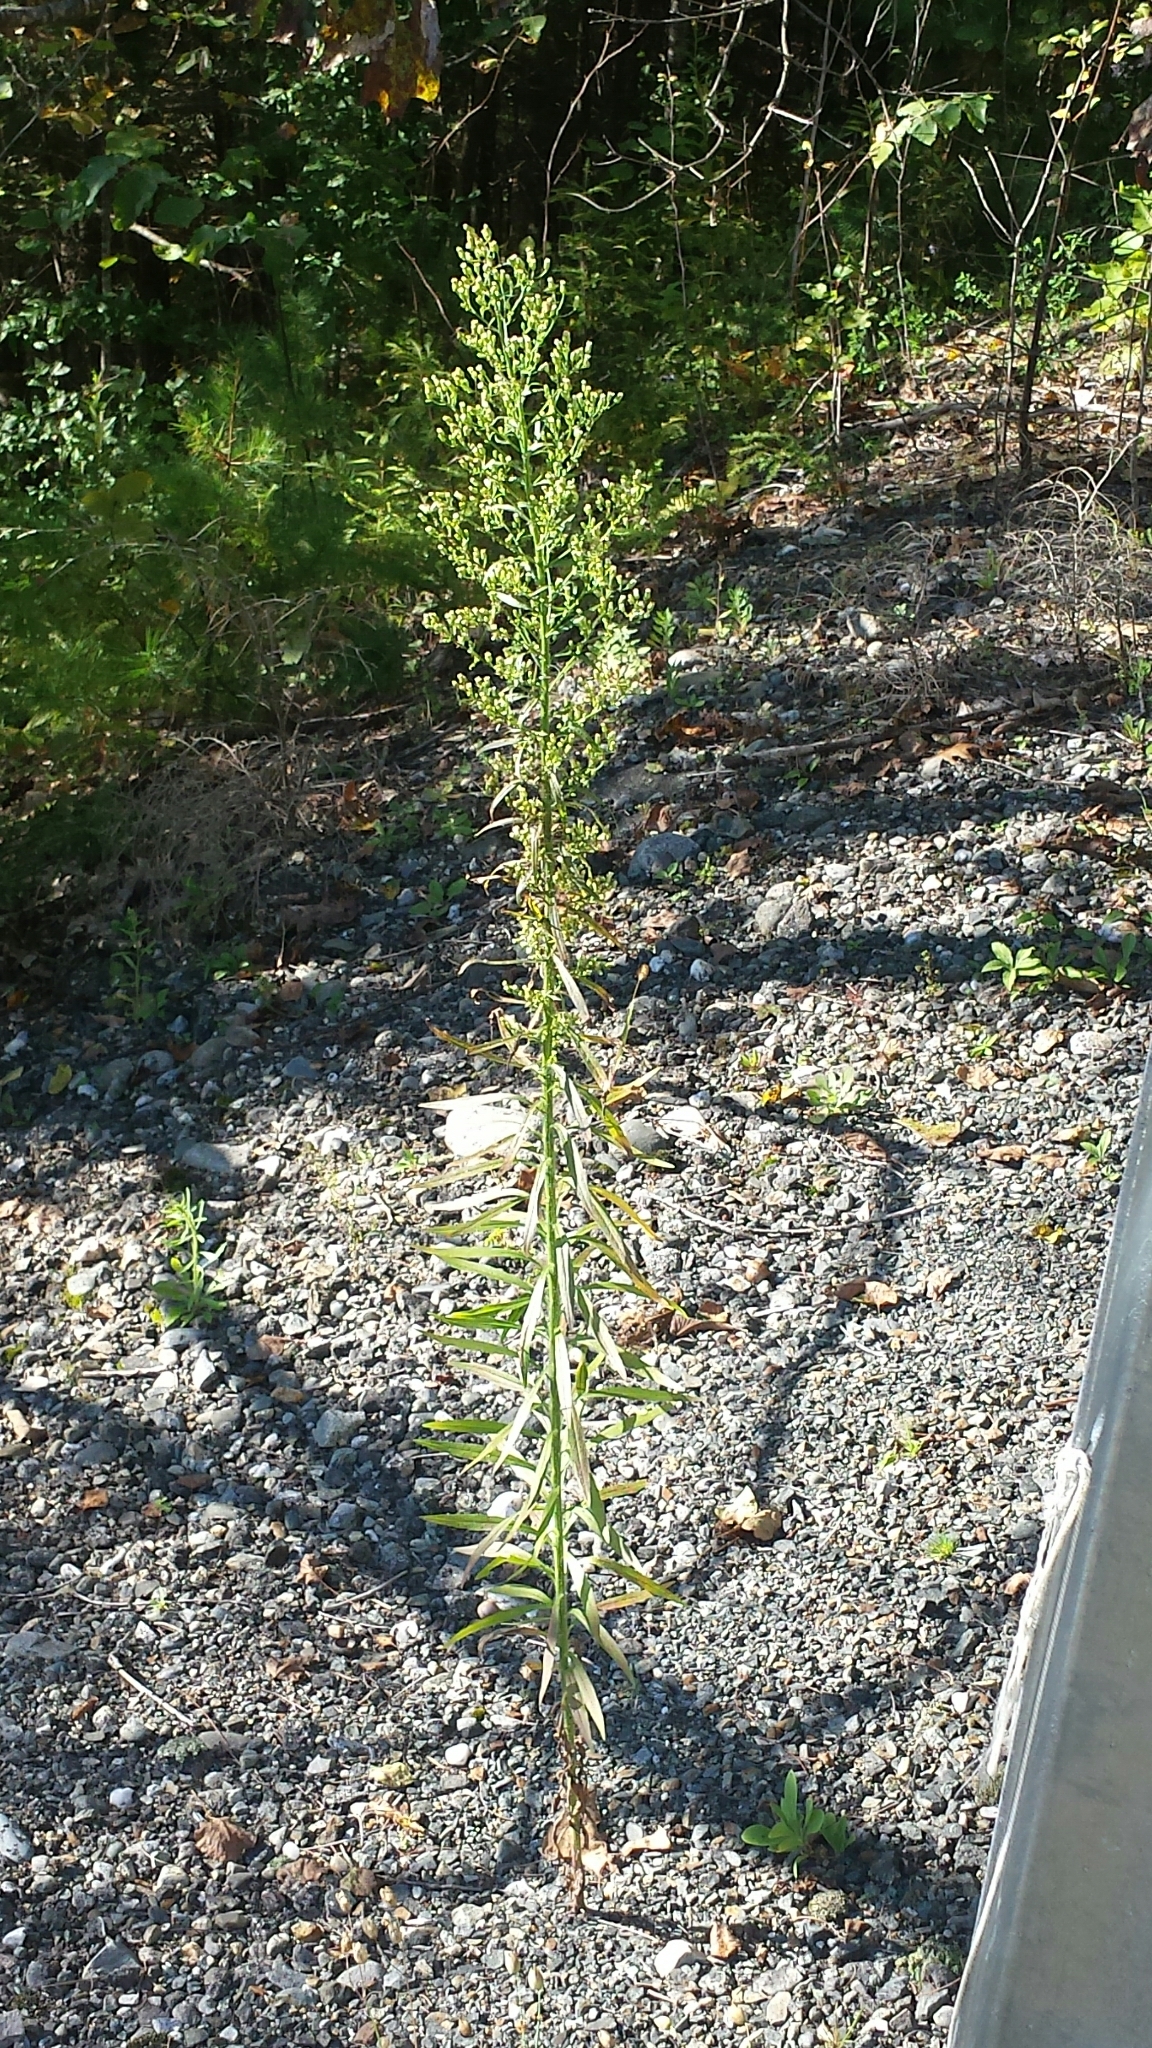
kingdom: Plantae
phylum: Tracheophyta
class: Magnoliopsida
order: Asterales
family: Asteraceae
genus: Erigeron
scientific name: Erigeron canadensis
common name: Canadian fleabane
